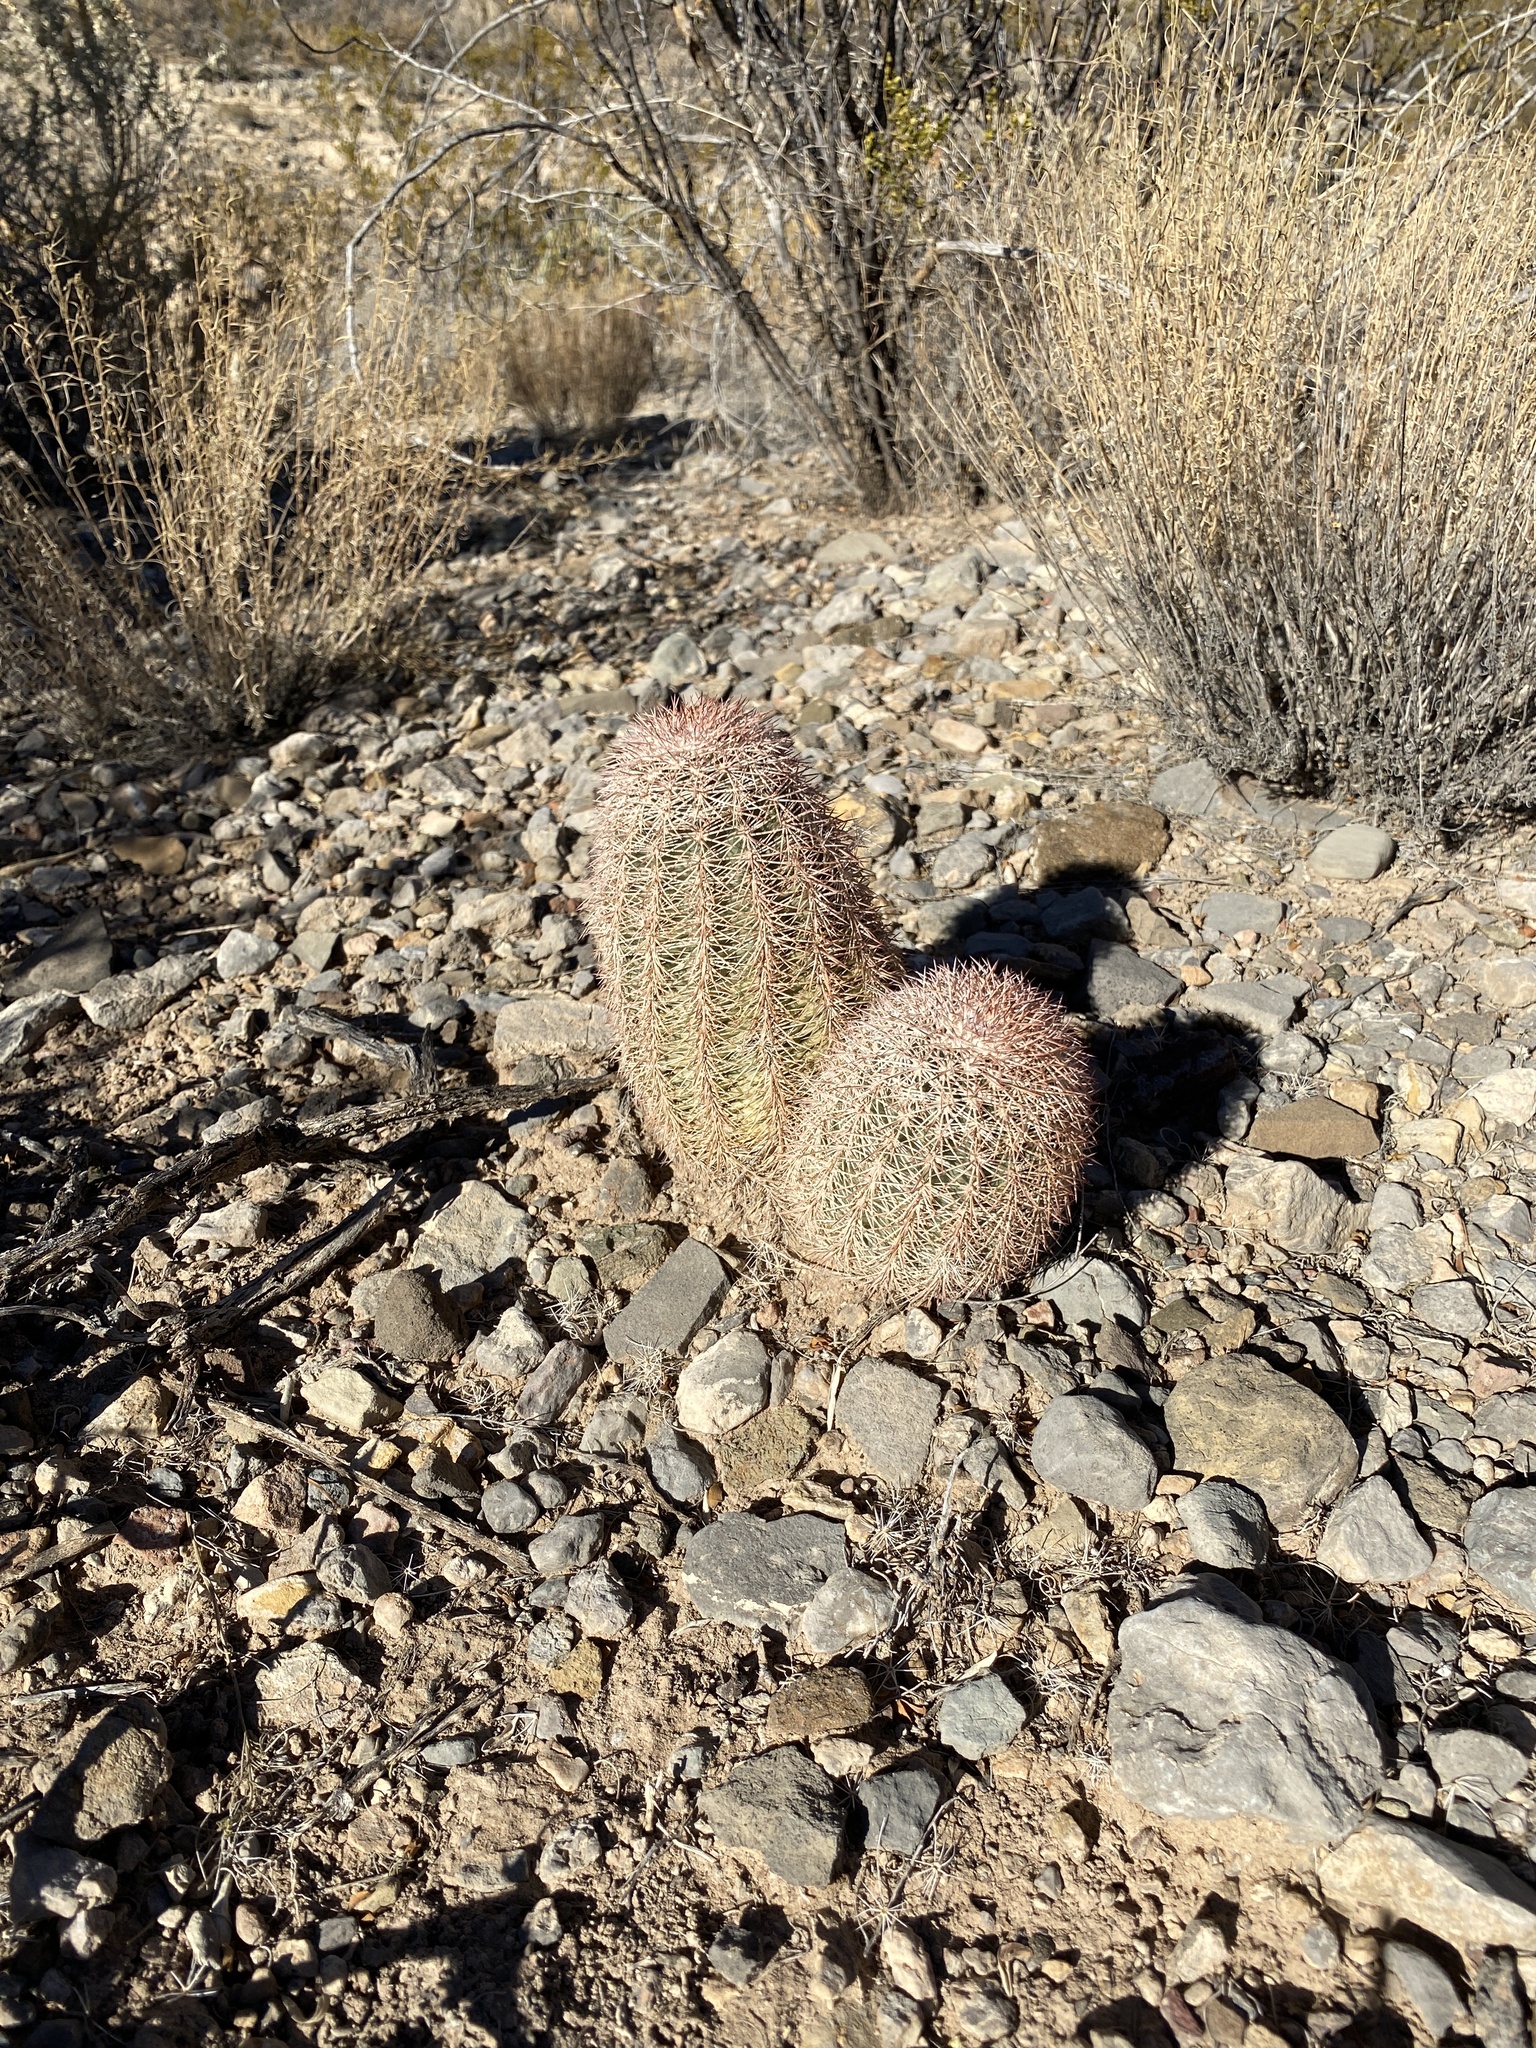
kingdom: Plantae
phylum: Tracheophyta
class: Magnoliopsida
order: Caryophyllales
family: Cactaceae
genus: Echinocereus
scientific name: Echinocereus dasyacanthus
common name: Spiny hedgehog cactus
